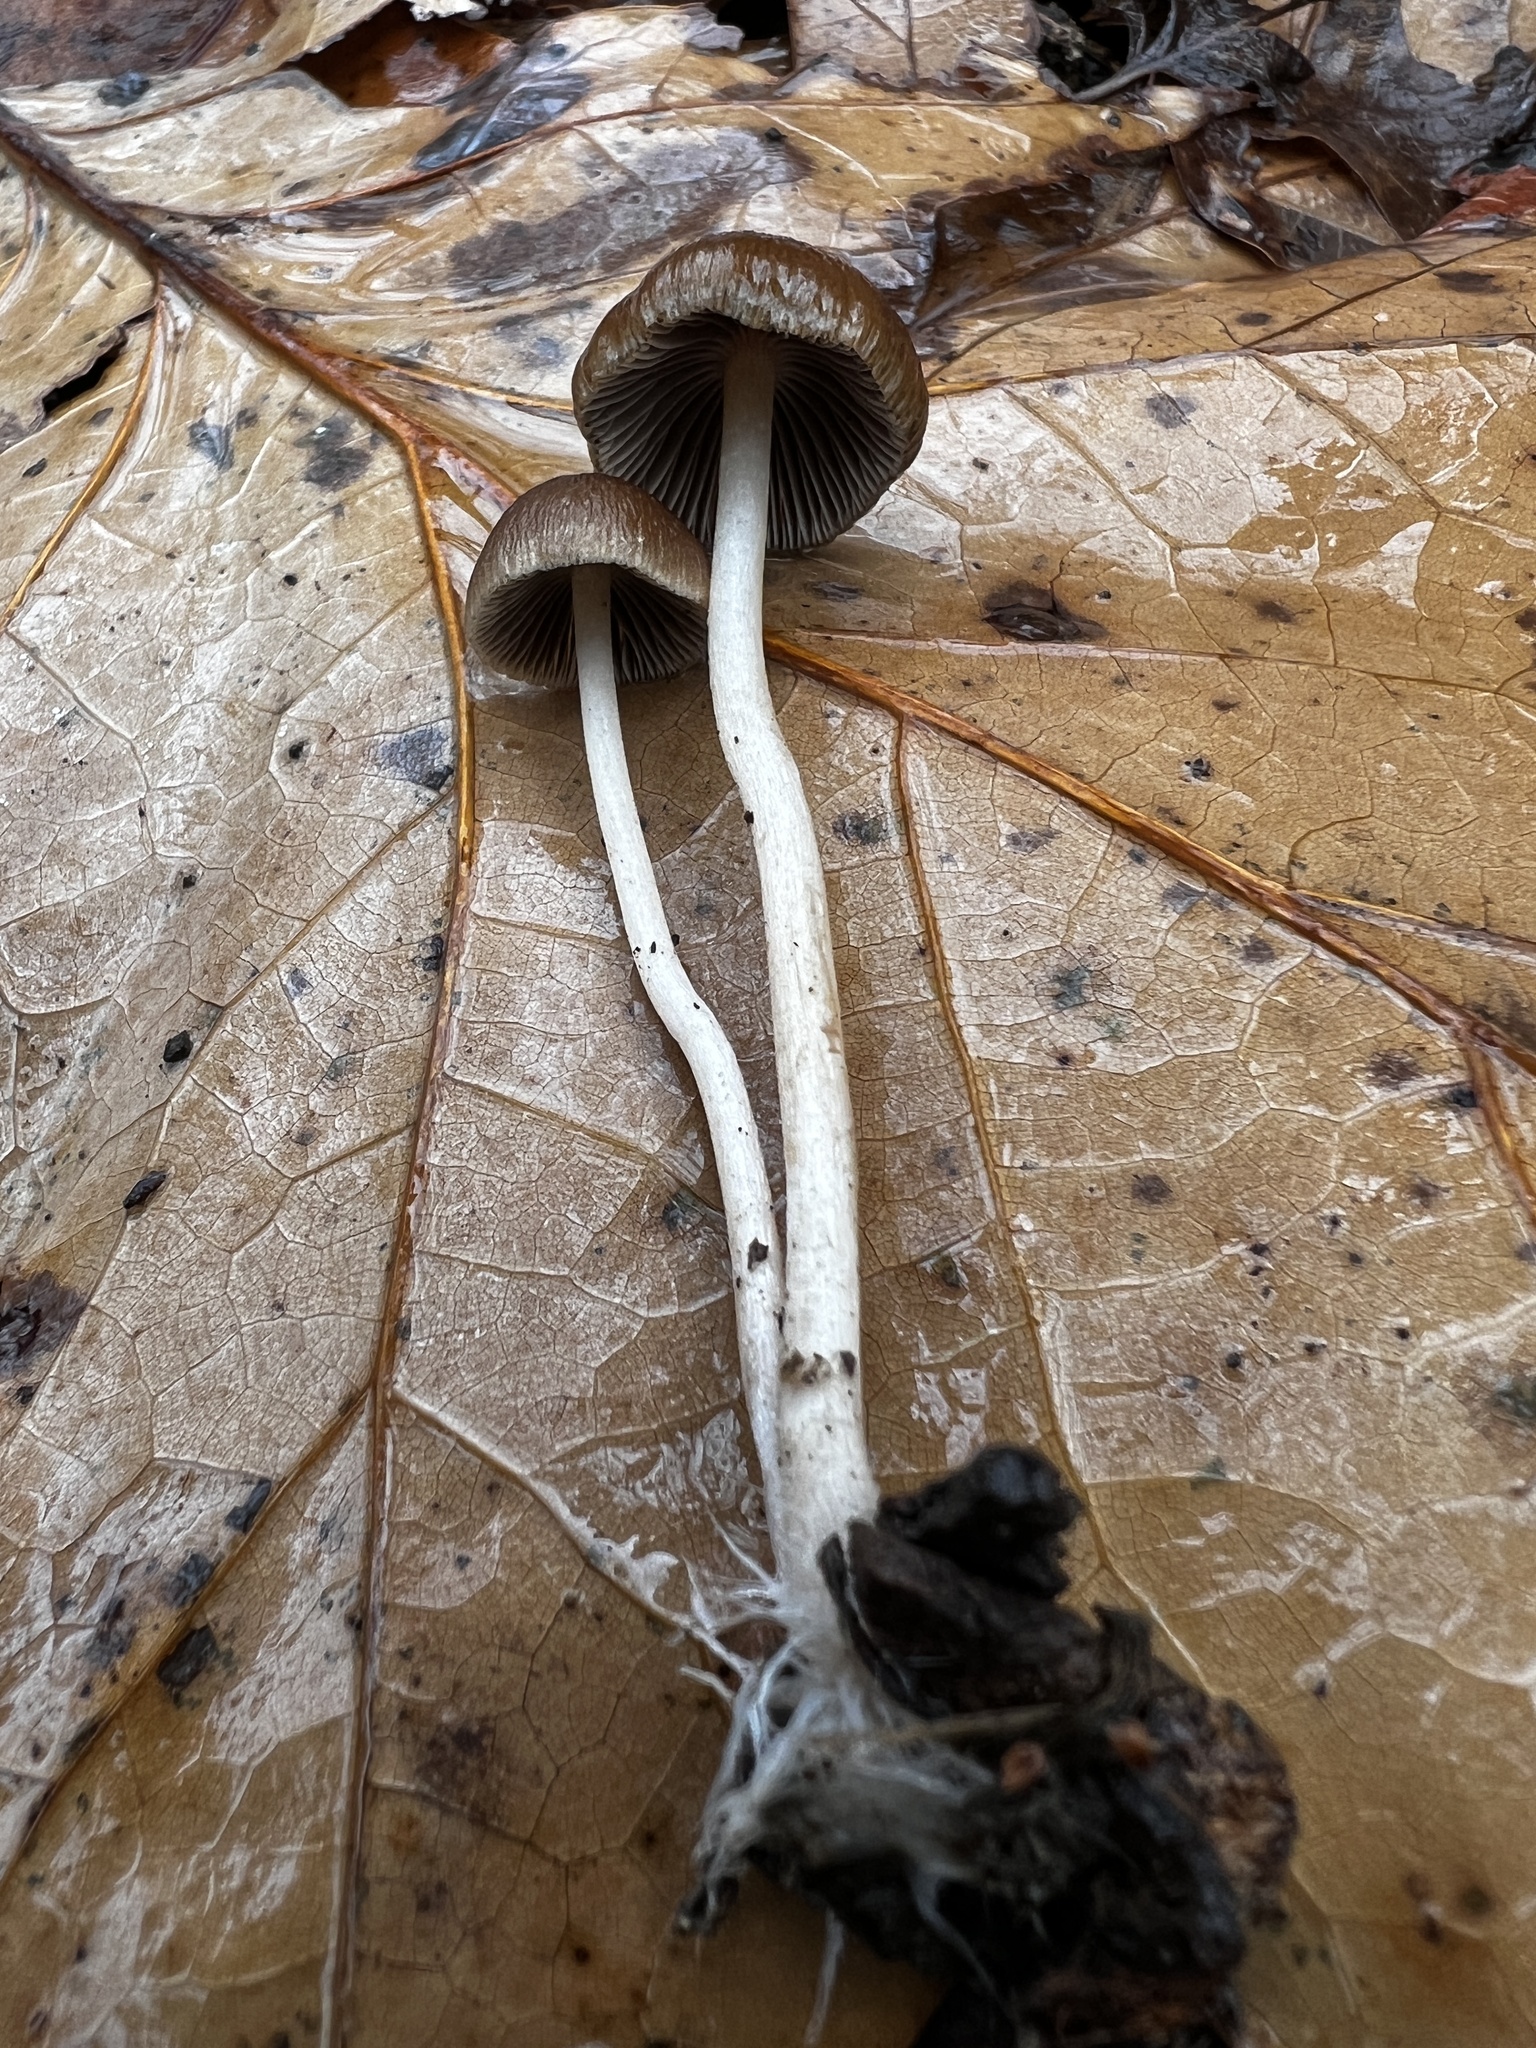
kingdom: Fungi
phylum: Basidiomycota
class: Agaricomycetes
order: Agaricales
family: Psathyrellaceae
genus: Psathyrella
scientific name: Psathyrella piluliformis
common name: Common stump brittlestem
